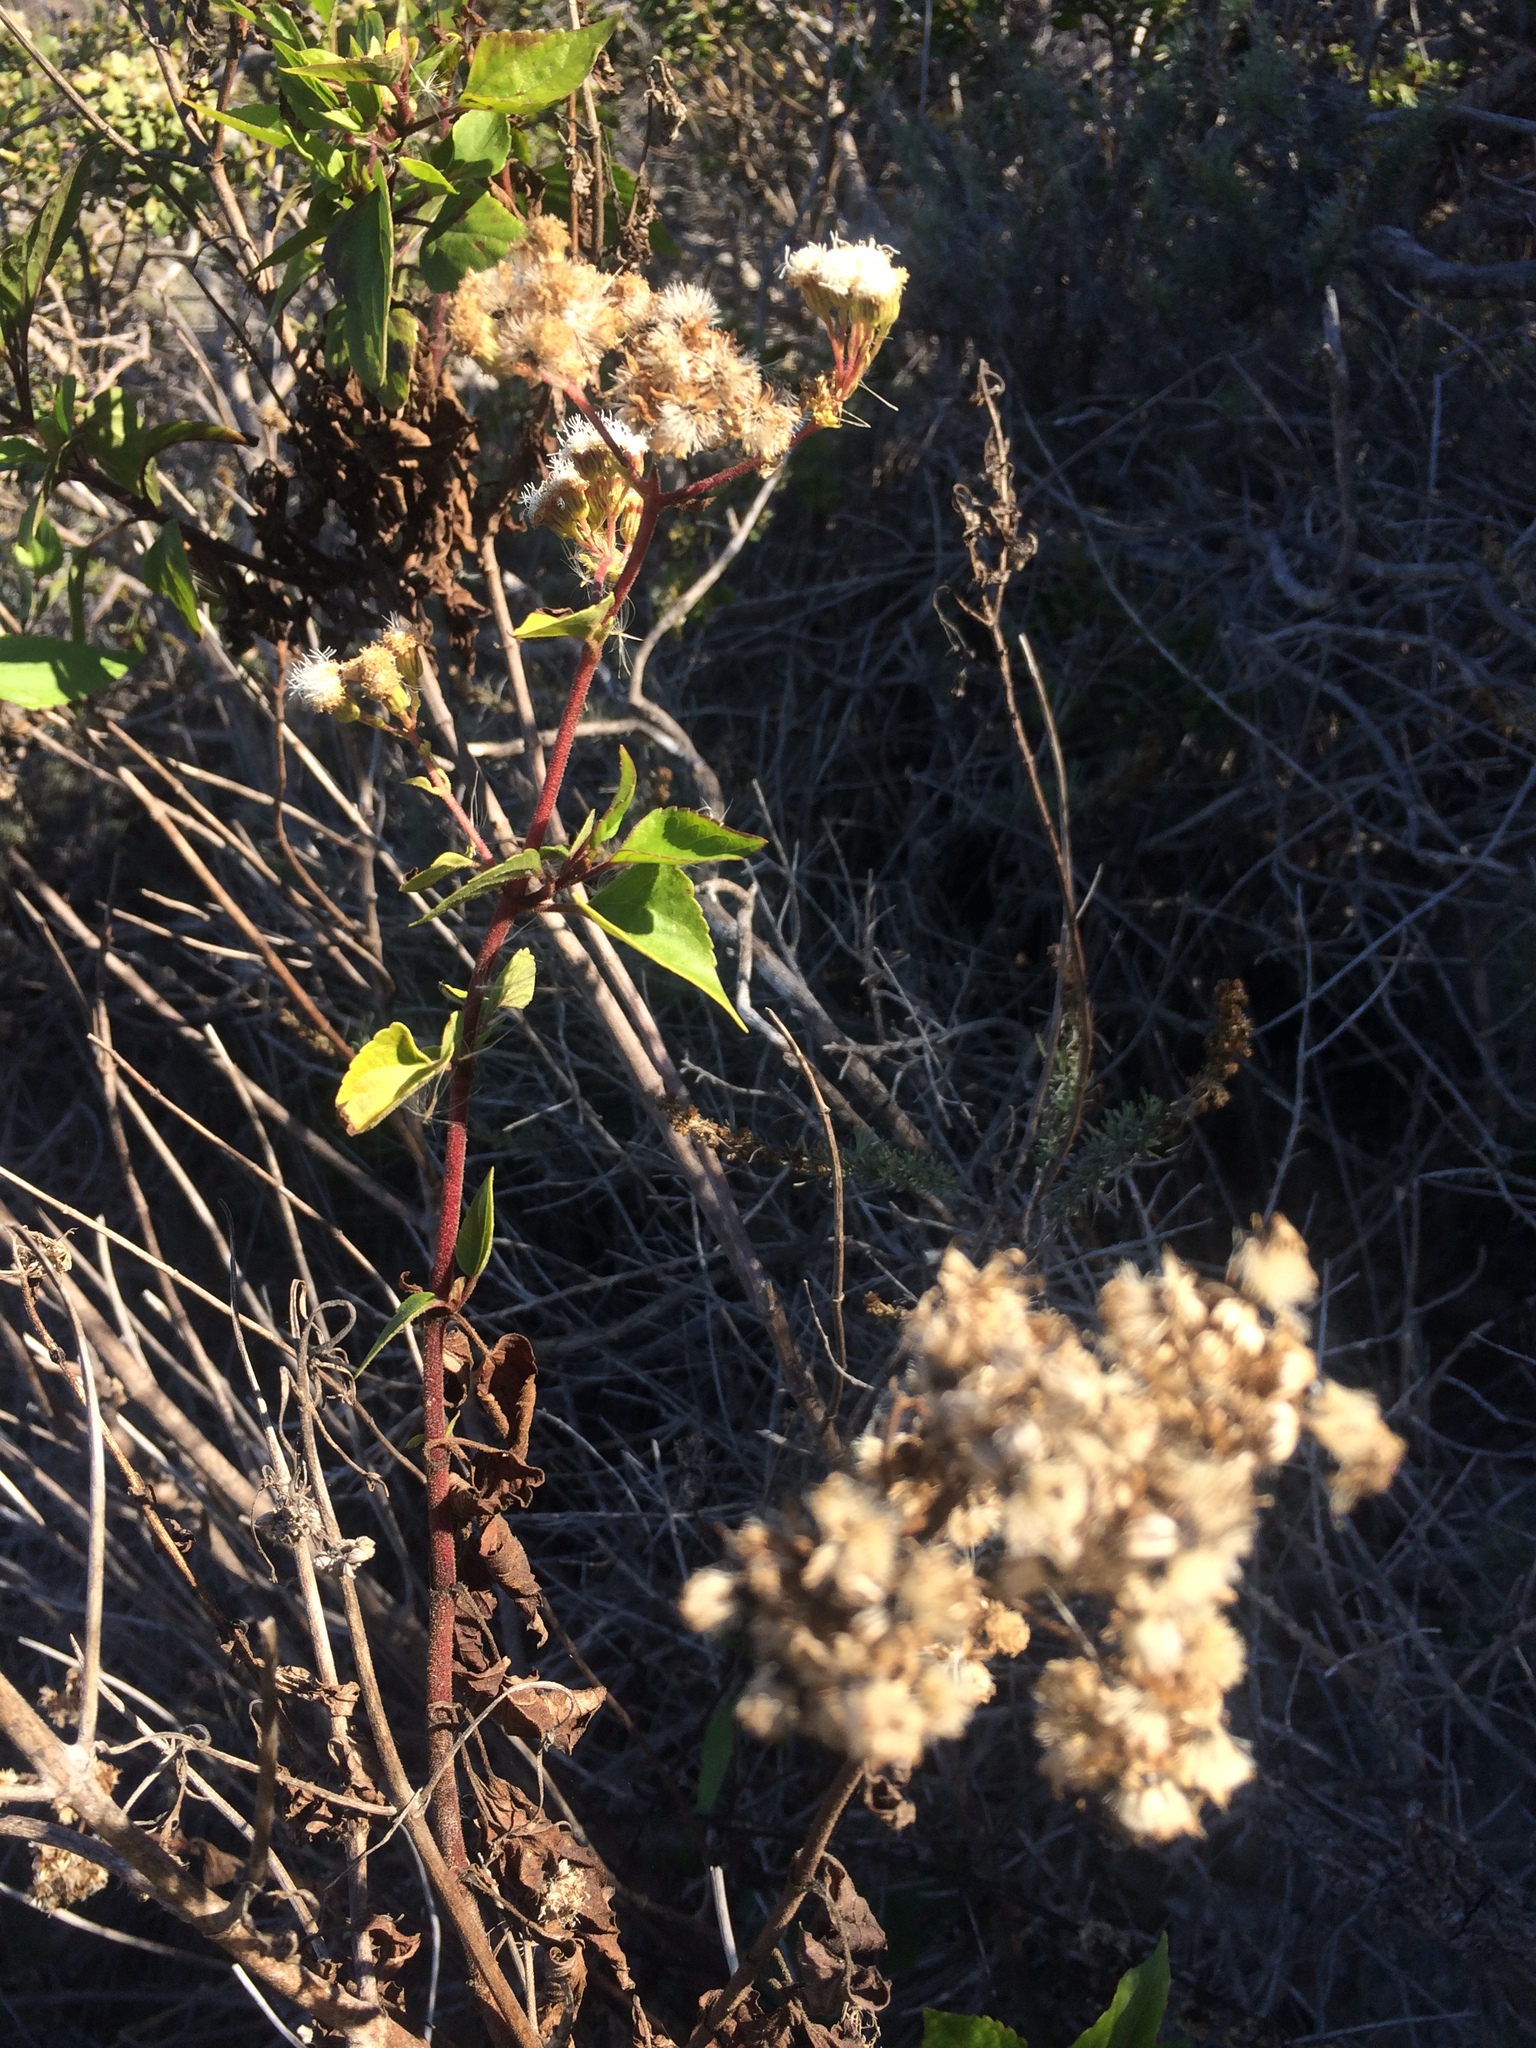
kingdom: Plantae
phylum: Tracheophyta
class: Magnoliopsida
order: Asterales
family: Asteraceae
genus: Ageratina
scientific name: Ageratina adenophora
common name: Sticky snakeroot
